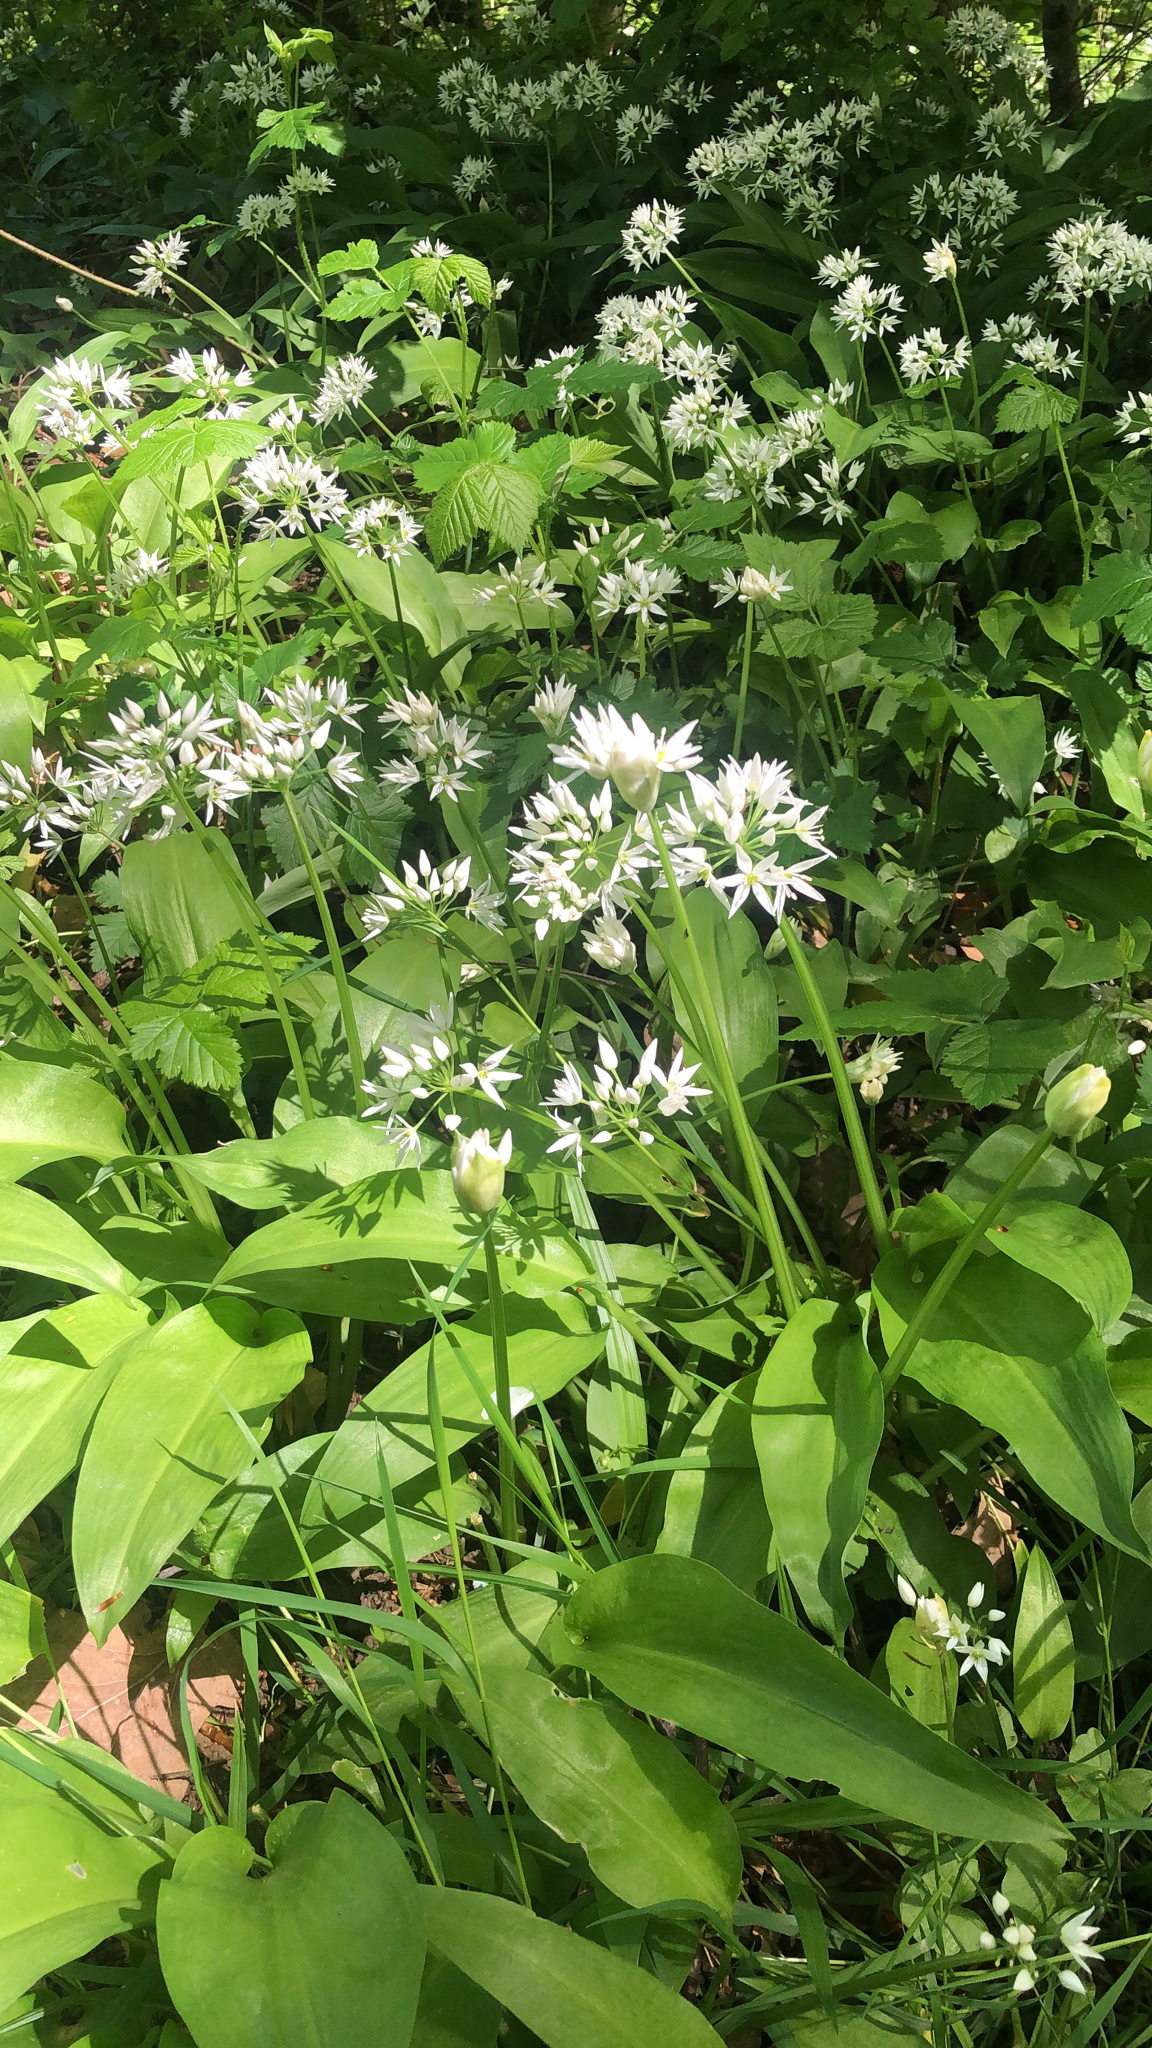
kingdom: Plantae
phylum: Tracheophyta
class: Liliopsida
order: Asparagales
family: Amaryllidaceae
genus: Allium
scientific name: Allium ursinum
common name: Ramsons
